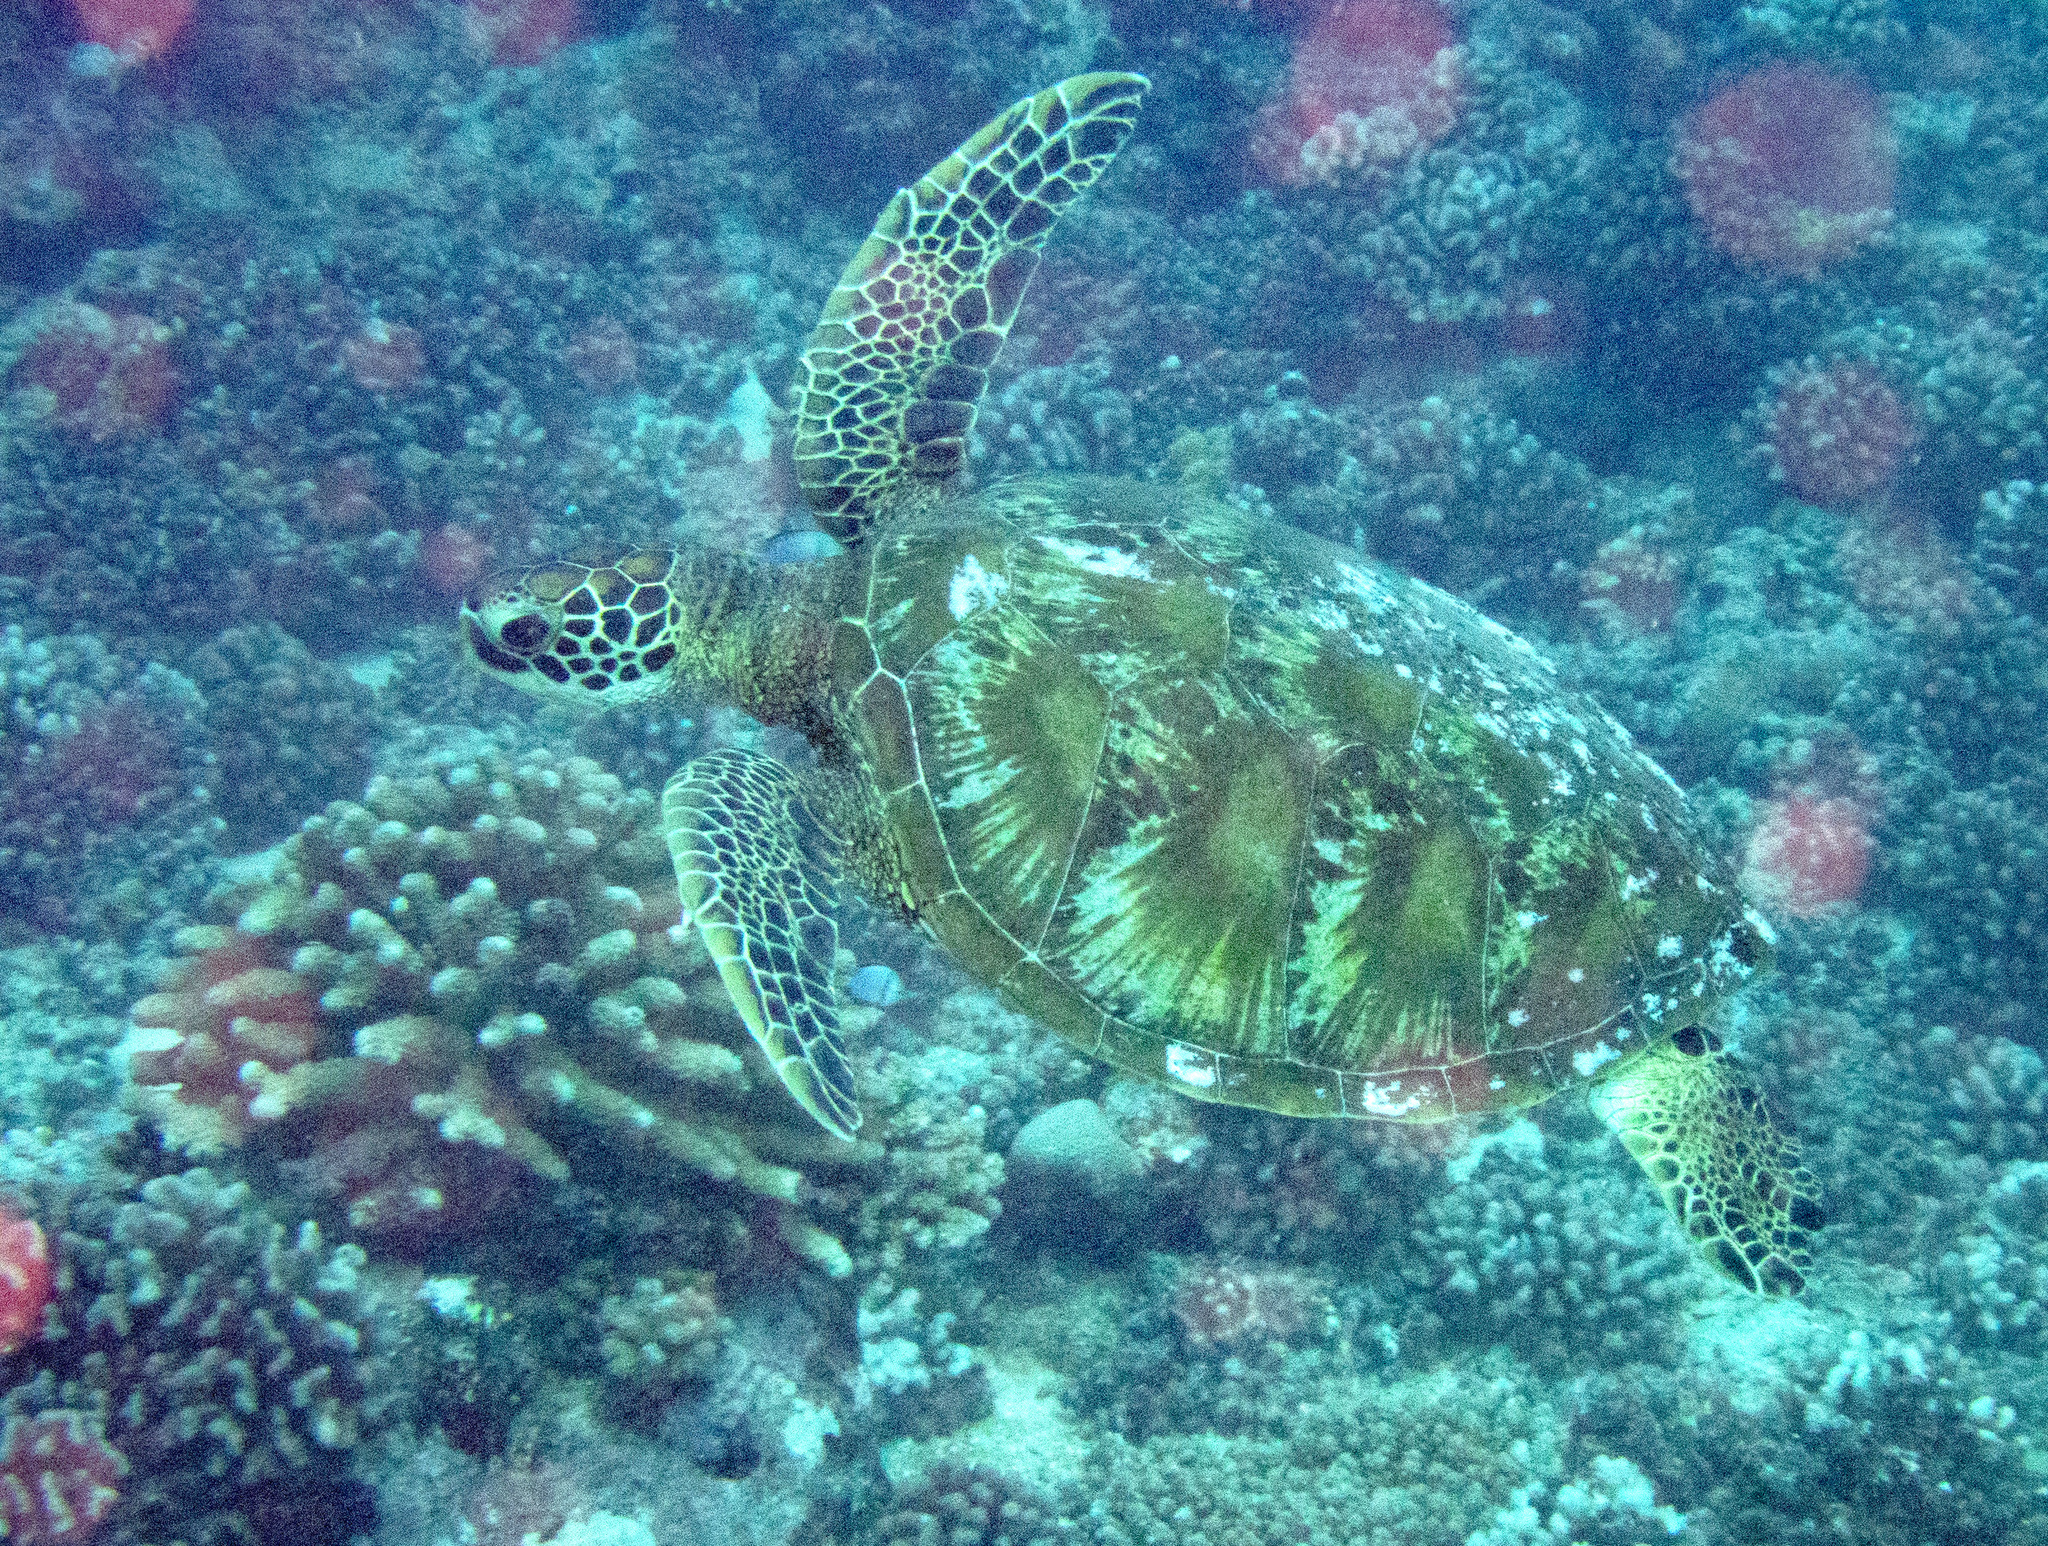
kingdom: Animalia
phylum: Chordata
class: Testudines
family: Cheloniidae
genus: Chelonia
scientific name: Chelonia mydas
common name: Green turtle
